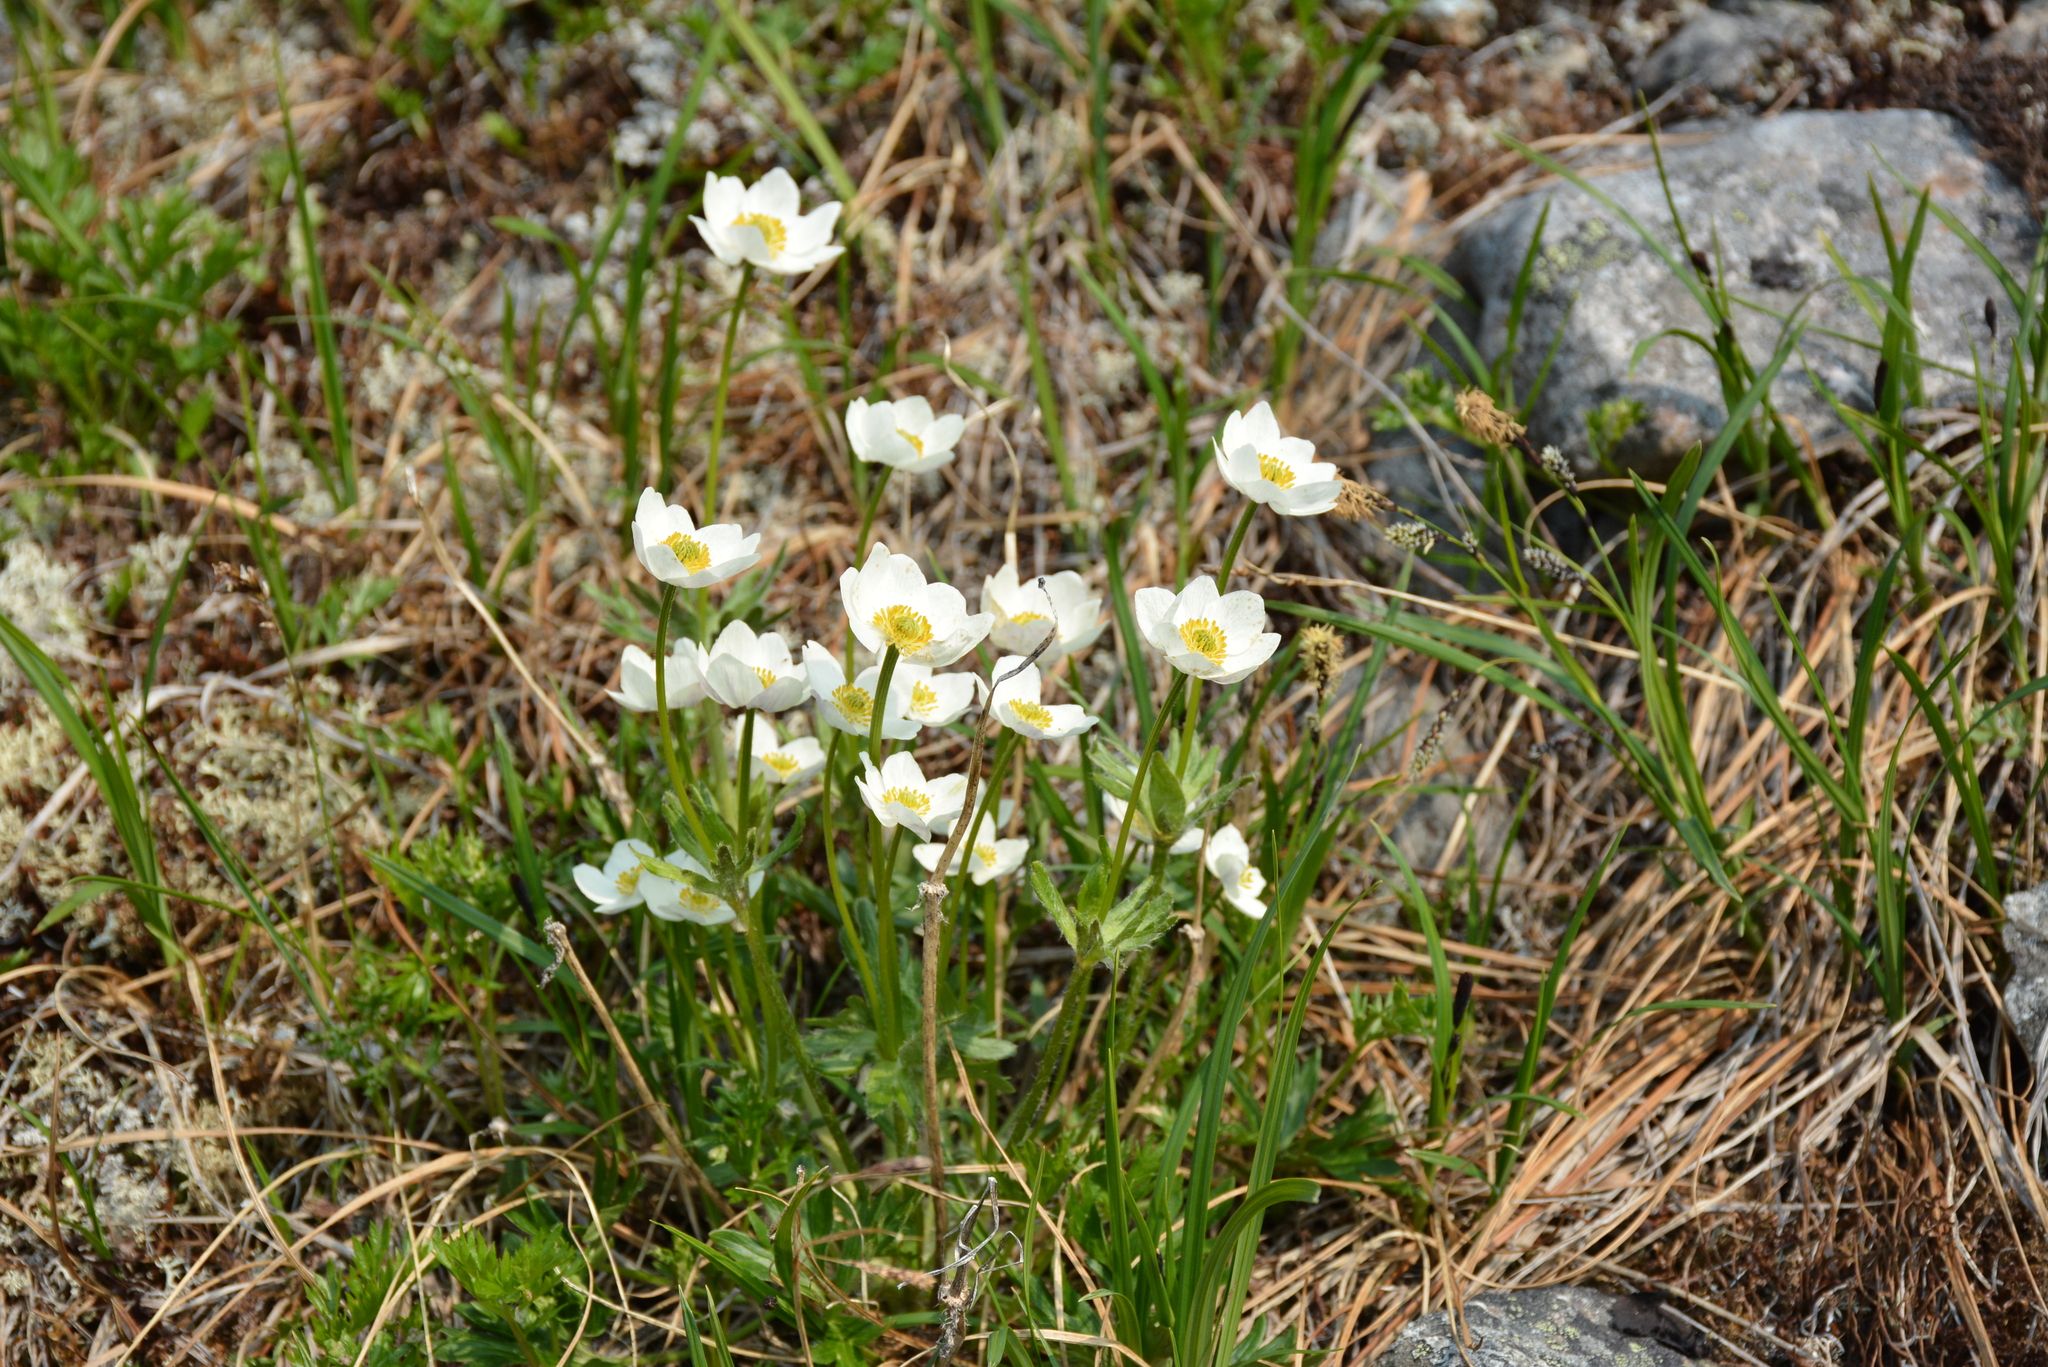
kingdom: Plantae
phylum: Tracheophyta
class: Magnoliopsida
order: Ranunculales
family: Ranunculaceae
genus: Anemonastrum
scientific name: Anemonastrum narcissiflorum
